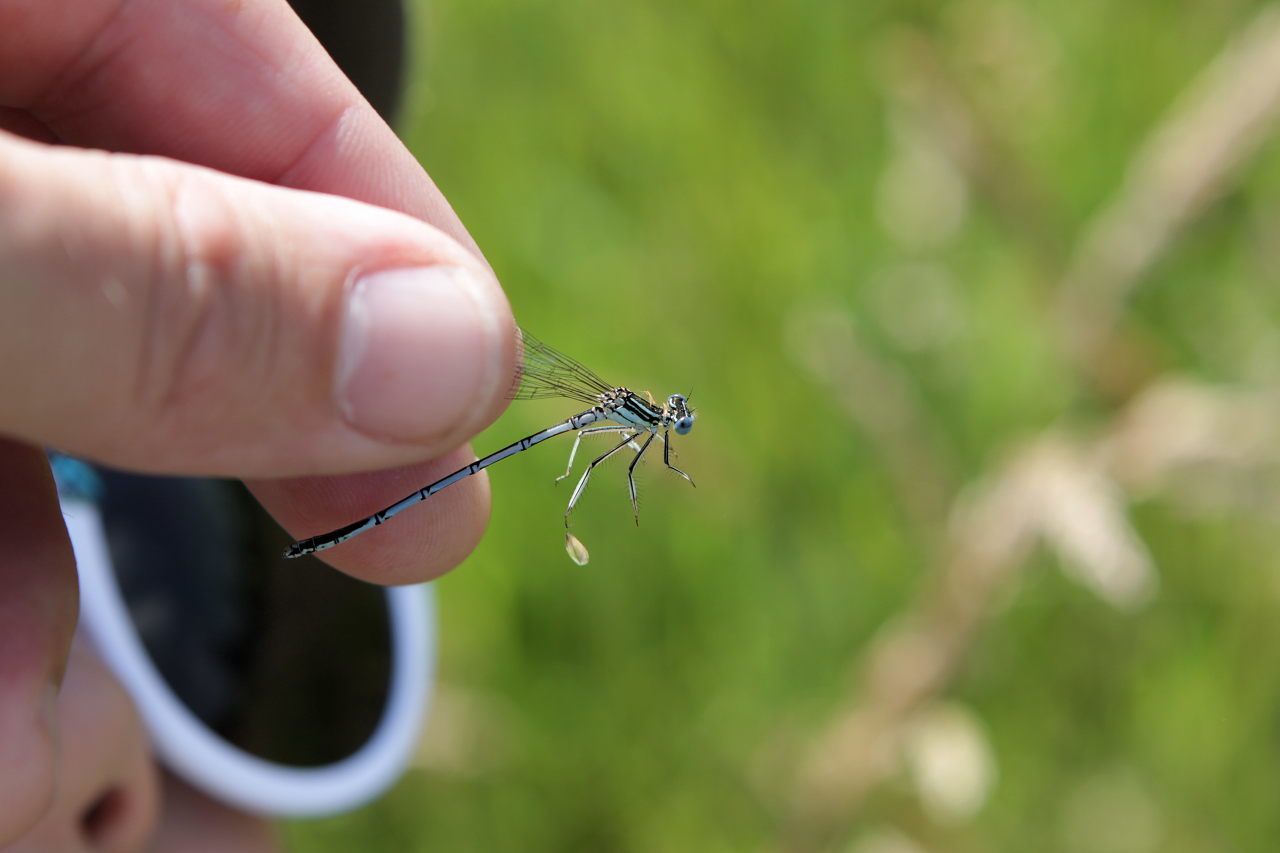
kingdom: Animalia
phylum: Arthropoda
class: Insecta
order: Odonata
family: Platycnemididae
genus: Platycnemis
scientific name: Platycnemis pennipes
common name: White-legged damselfly
